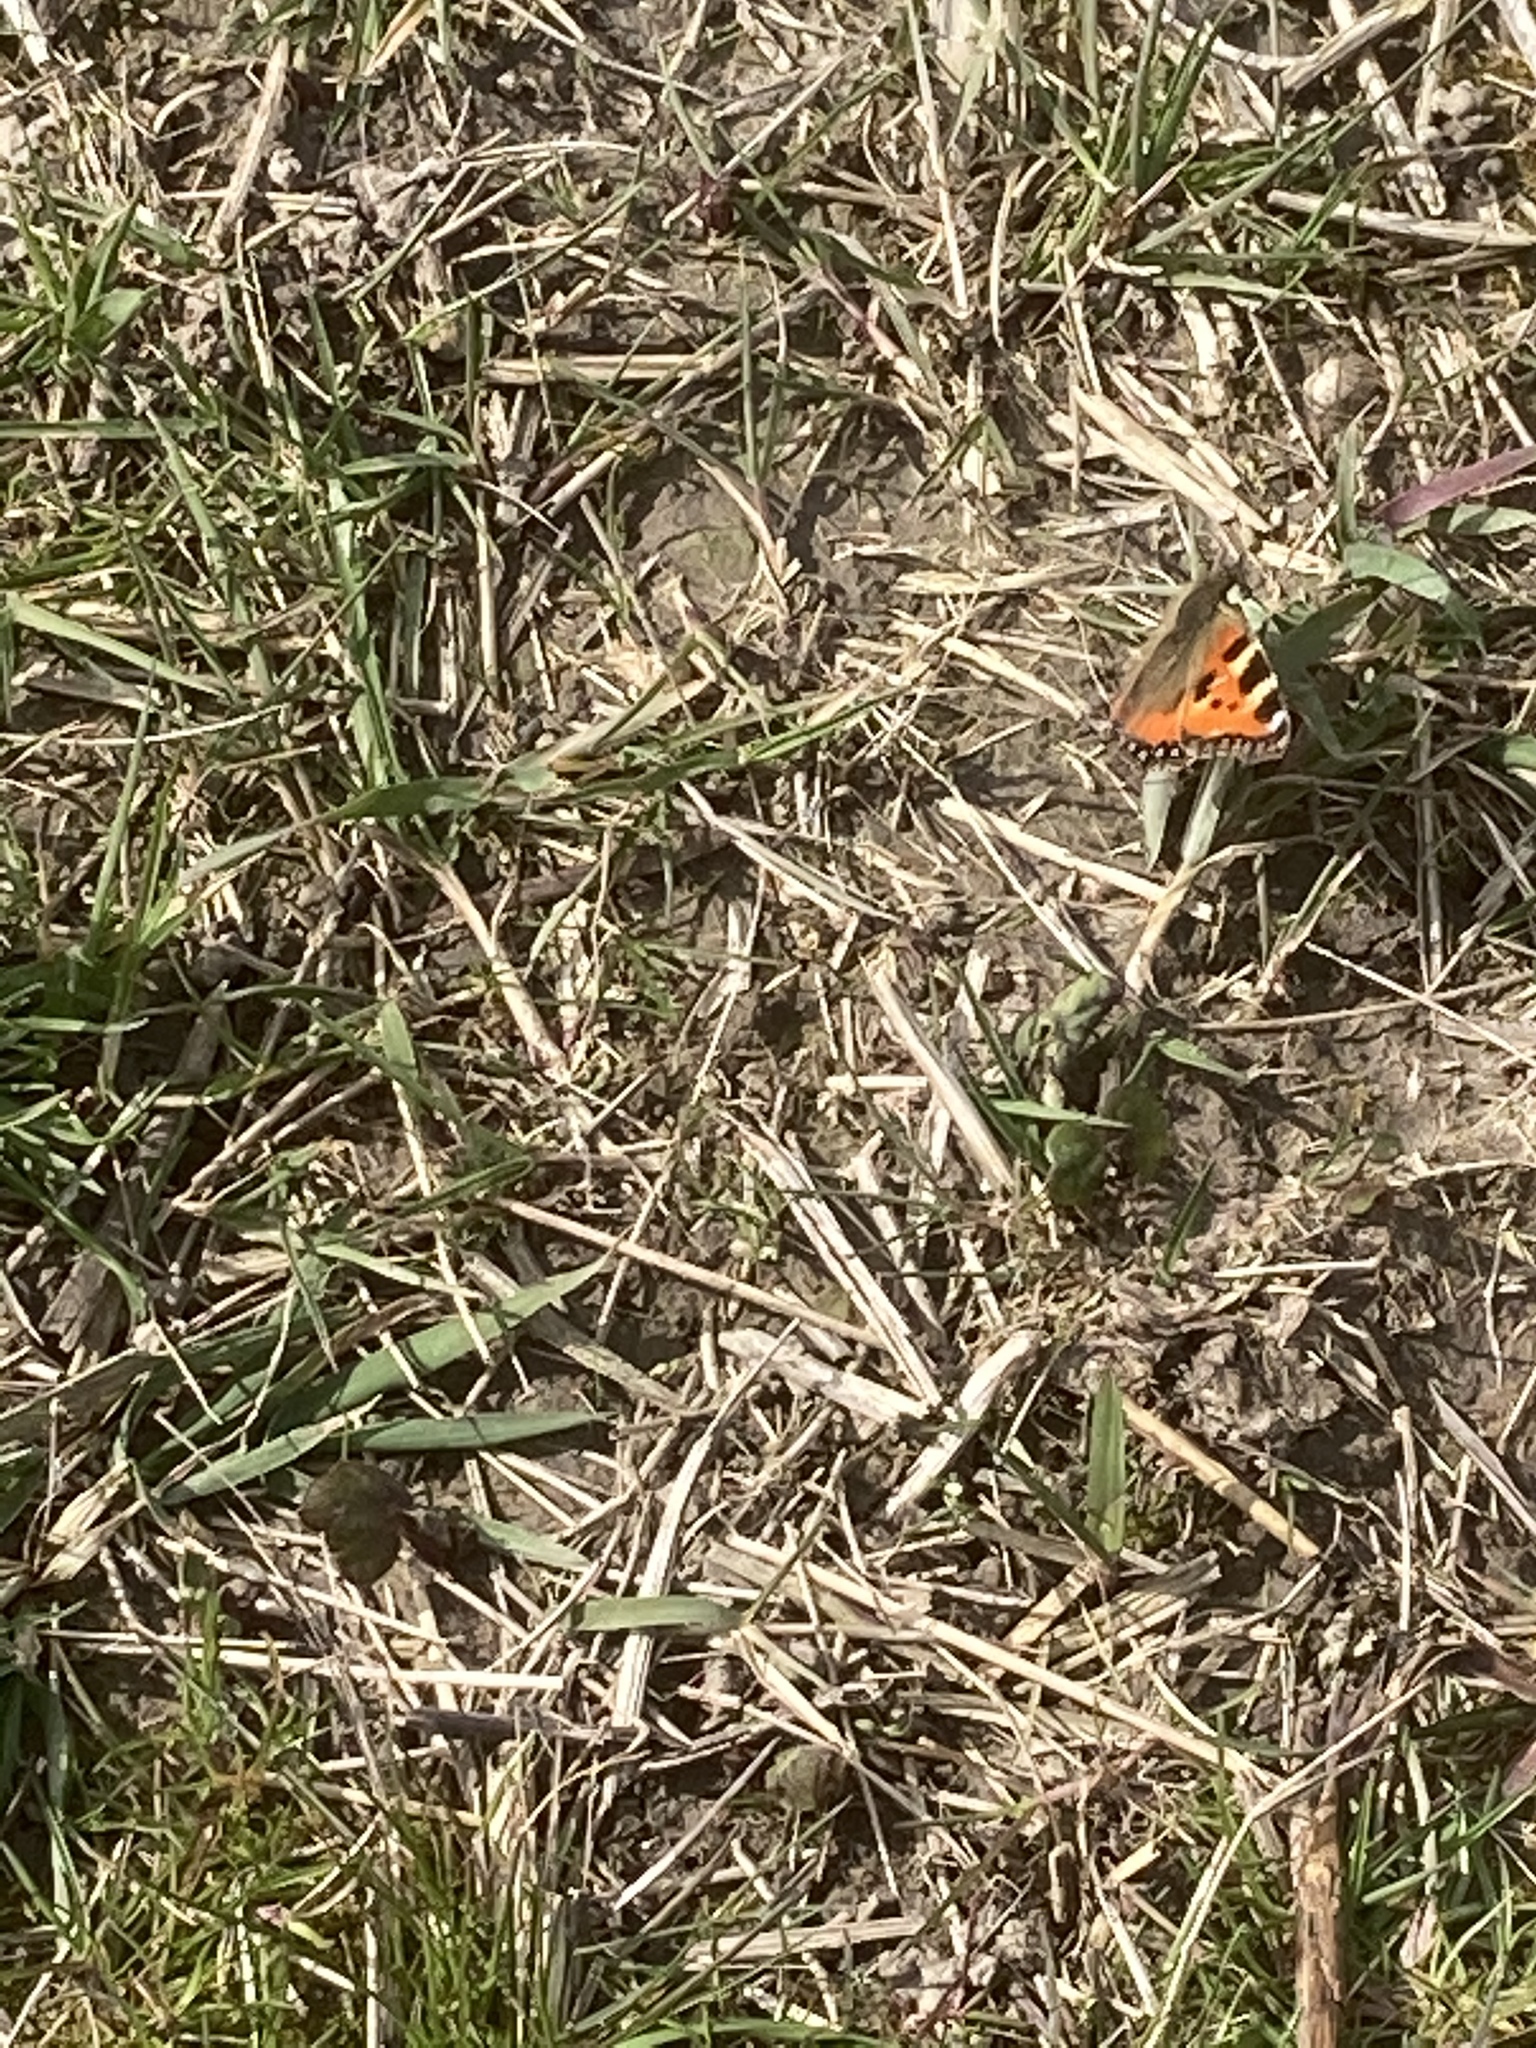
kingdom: Animalia
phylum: Arthropoda
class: Insecta
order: Lepidoptera
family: Nymphalidae
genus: Aglais
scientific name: Aglais urticae
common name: Small tortoiseshell
